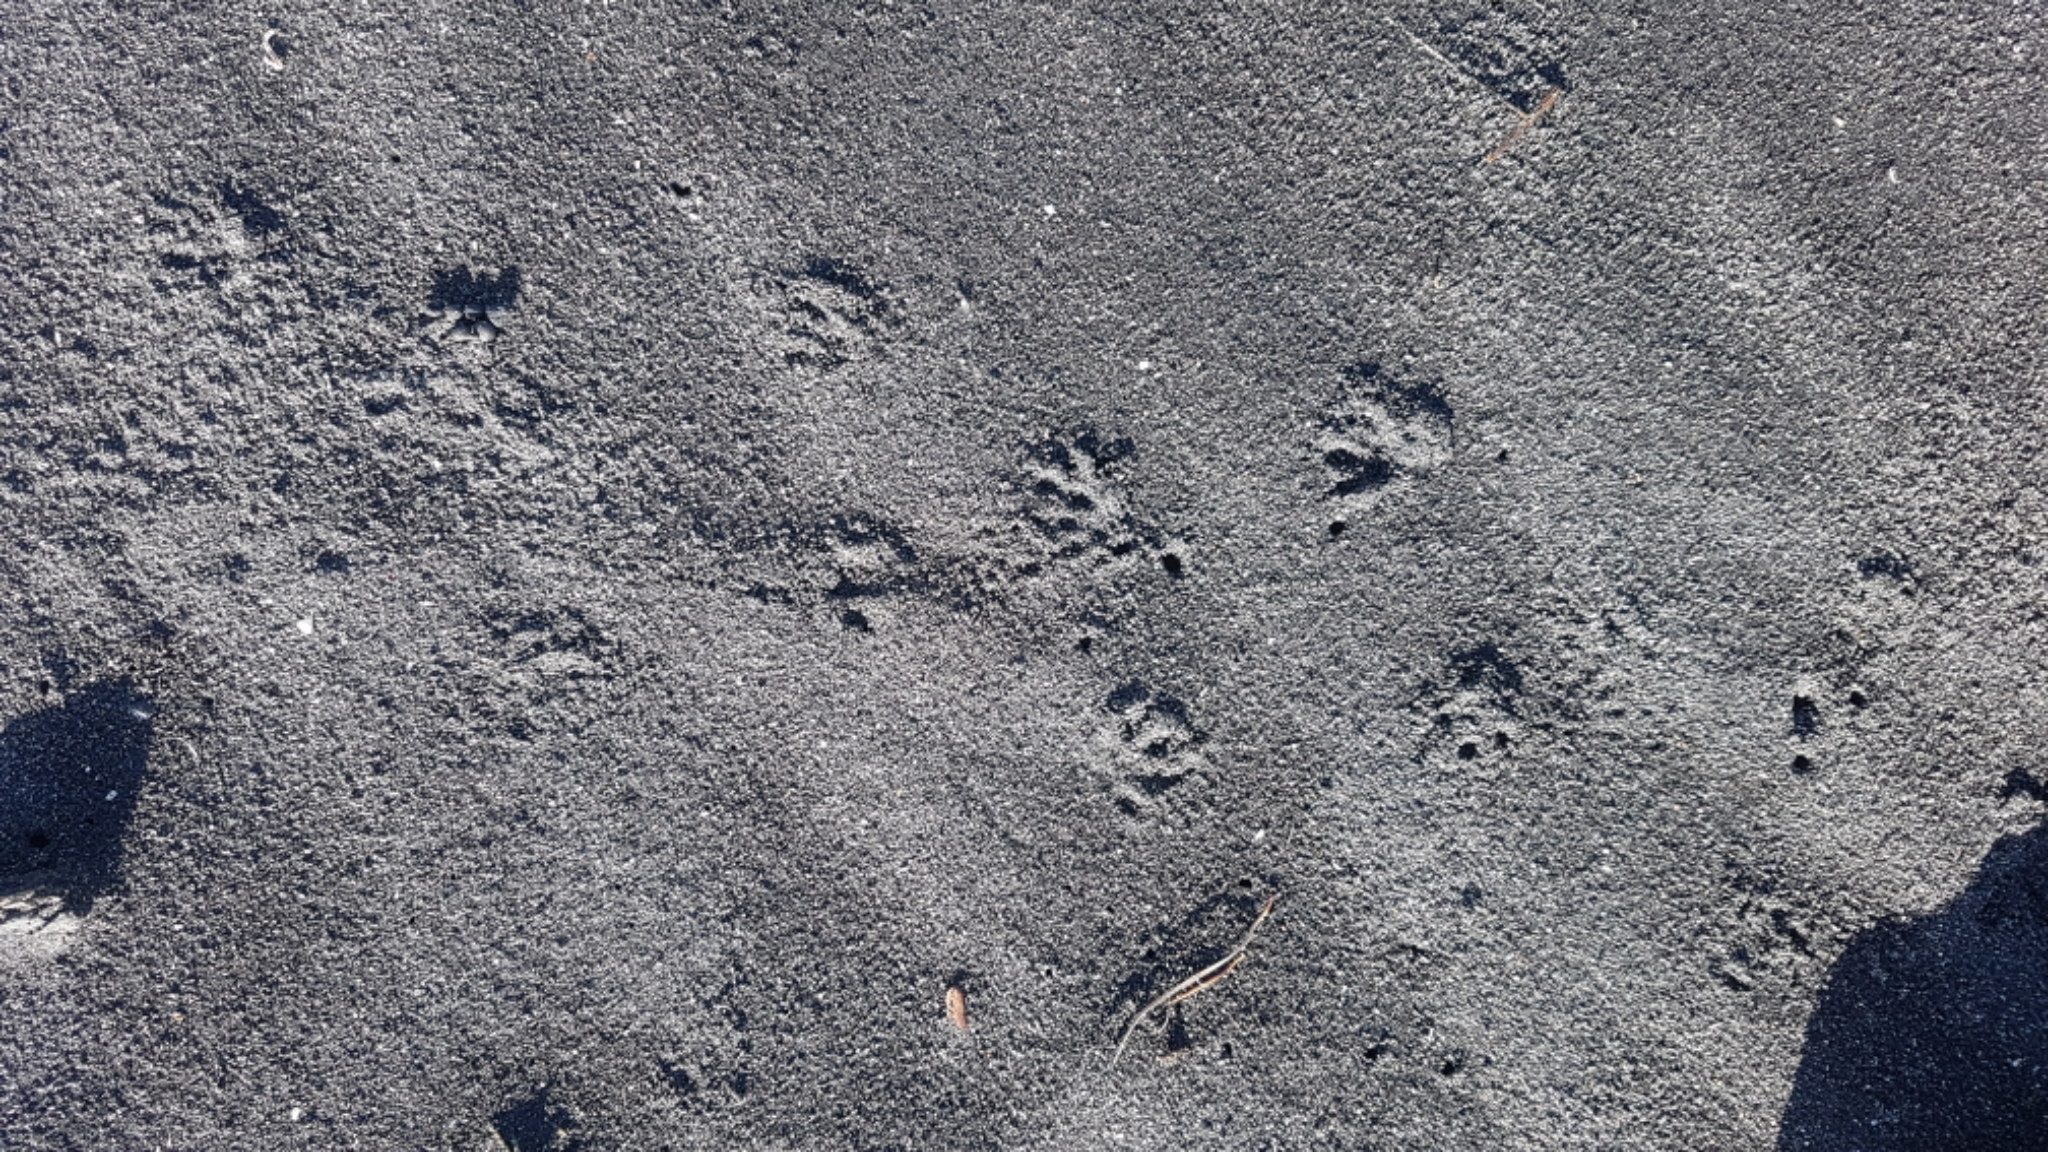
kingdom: Animalia
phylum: Chordata
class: Mammalia
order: Erinaceomorpha
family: Erinaceidae
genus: Erinaceus
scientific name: Erinaceus europaeus
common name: West european hedgehog
